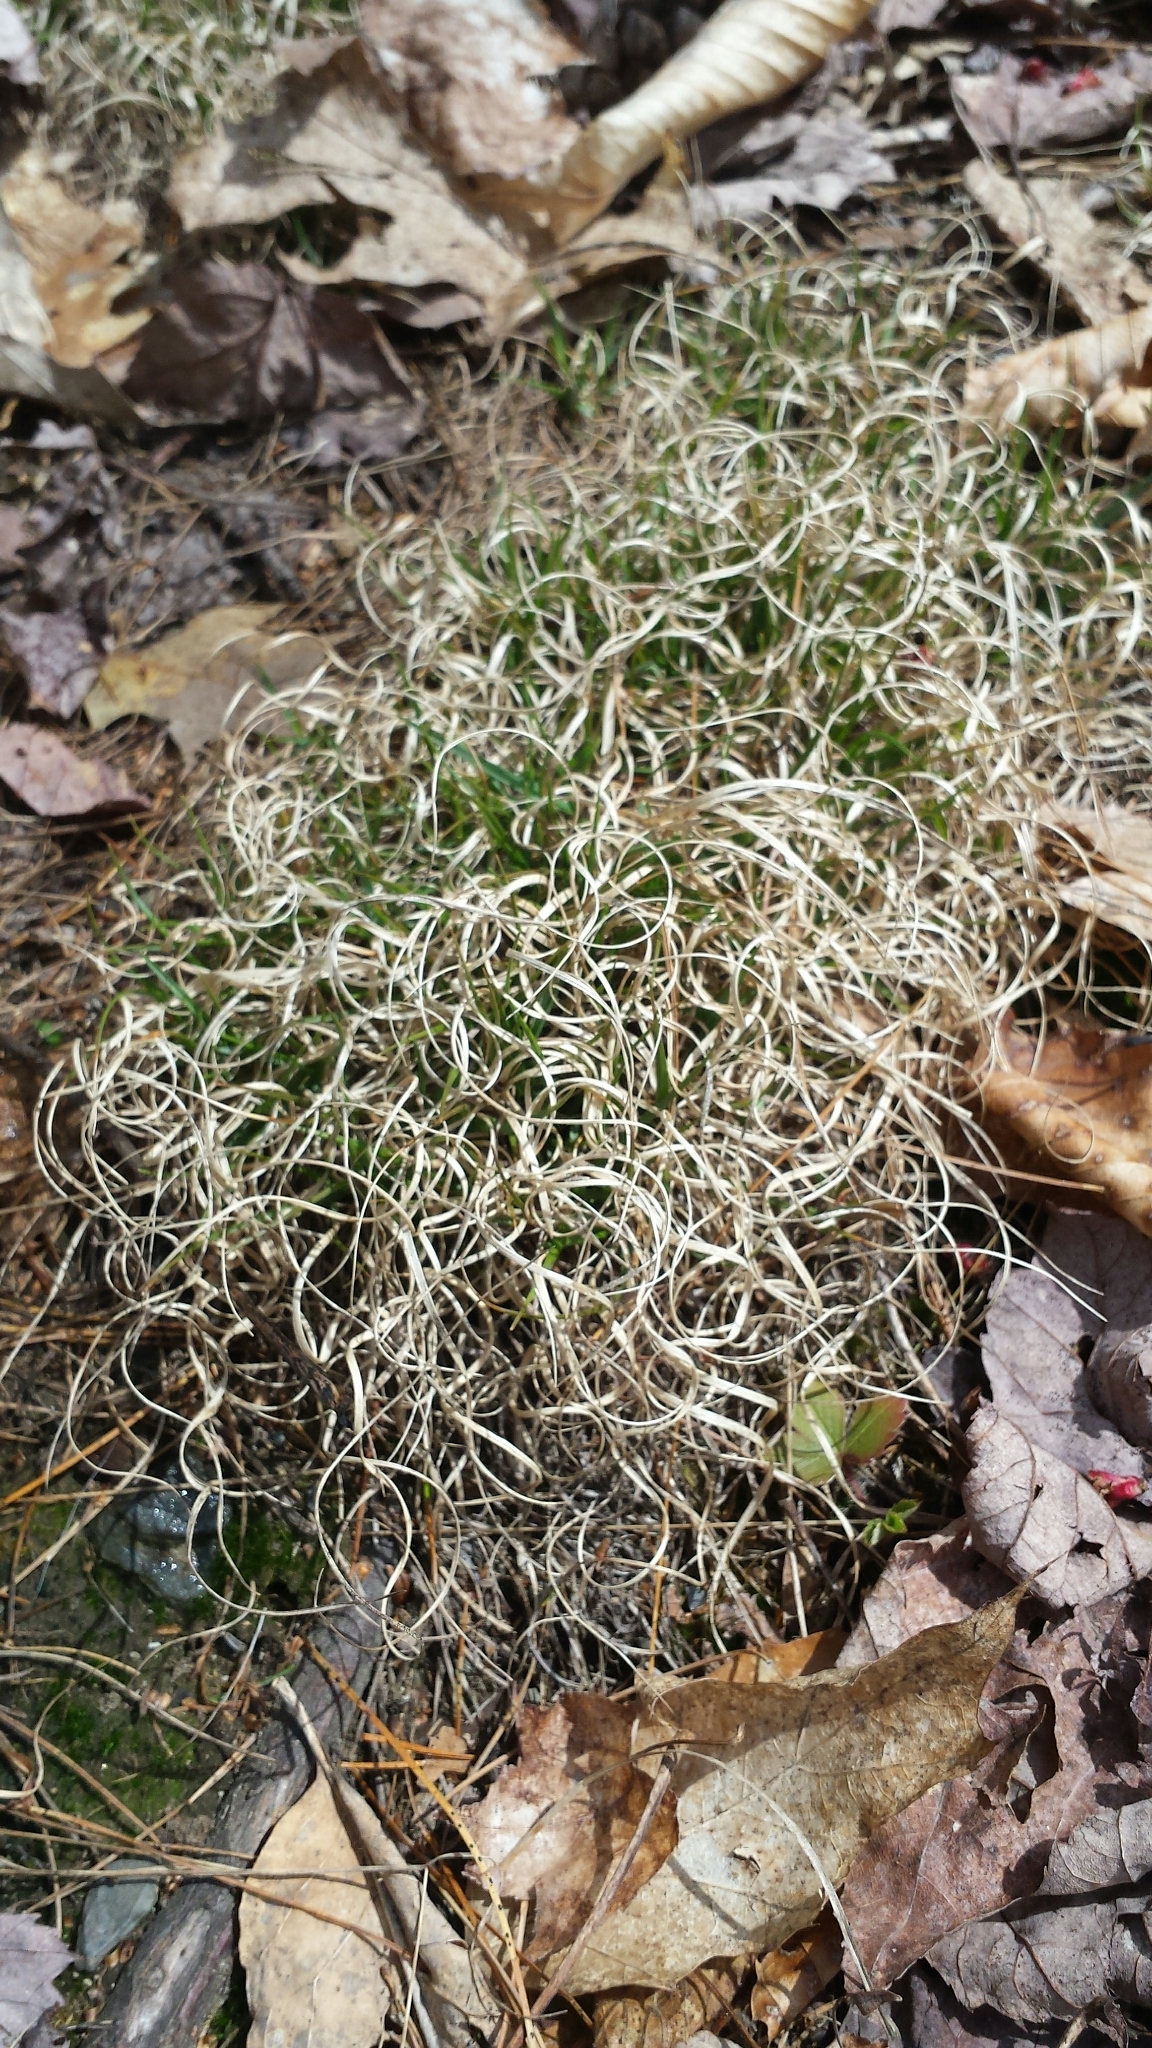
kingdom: Plantae
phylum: Tracheophyta
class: Liliopsida
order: Poales
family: Poaceae
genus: Danthonia
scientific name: Danthonia spicata
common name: Common wild oatgrass
